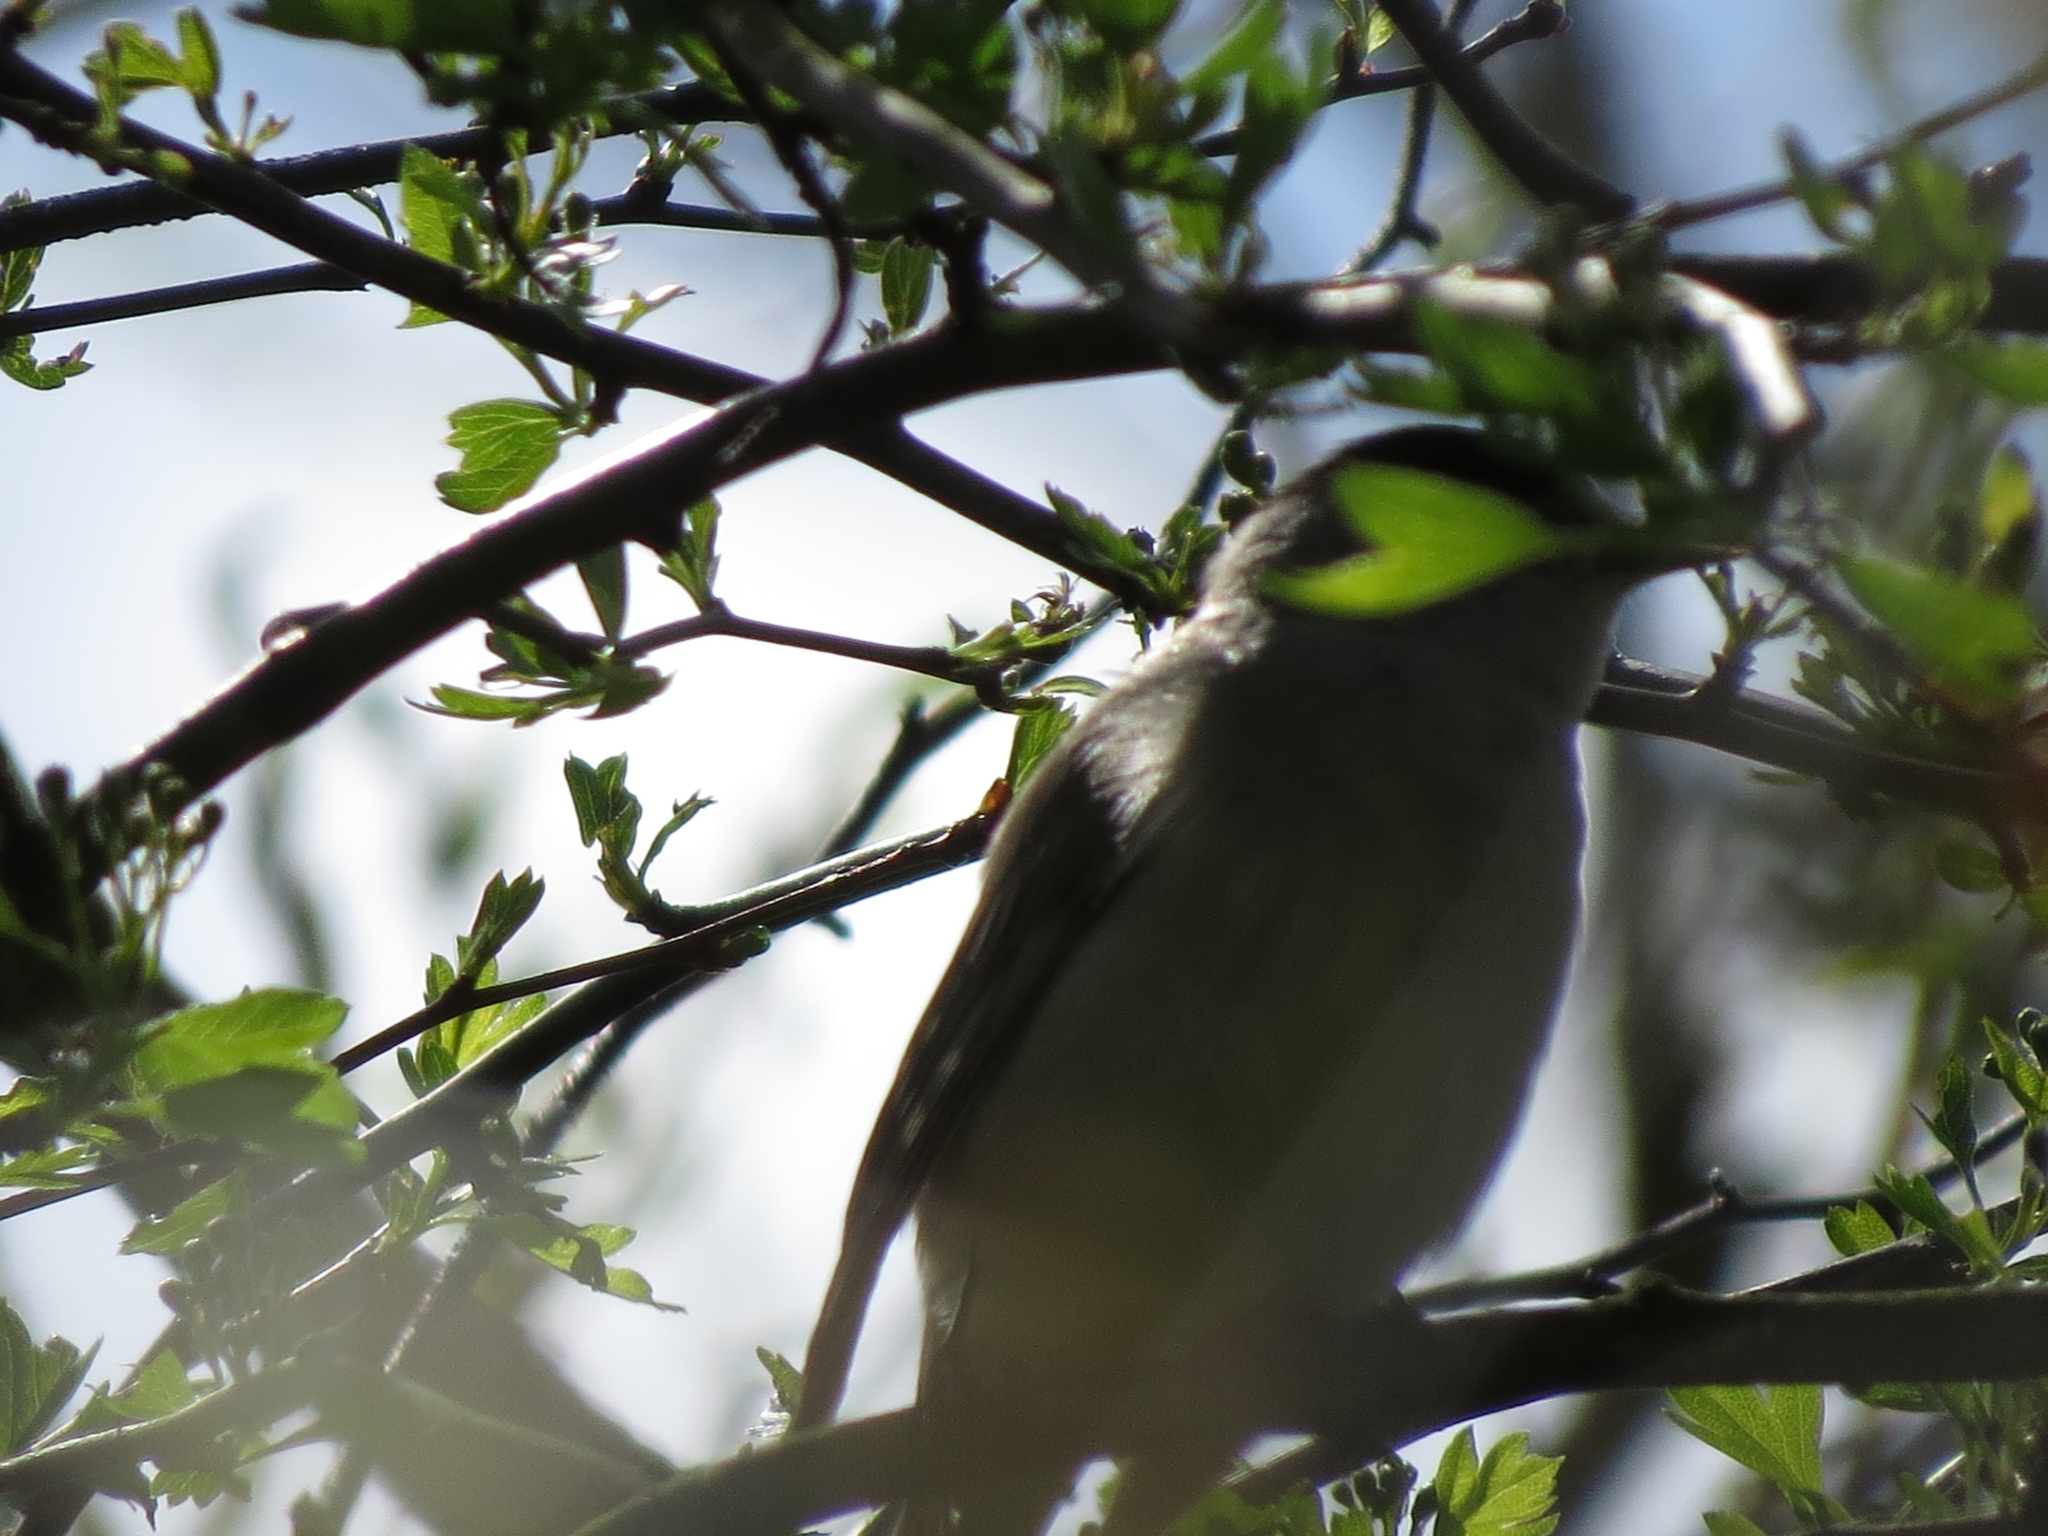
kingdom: Animalia
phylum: Chordata
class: Aves
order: Passeriformes
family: Sylviidae
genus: Sylvia
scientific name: Sylvia atricapilla
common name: Eurasian blackcap
